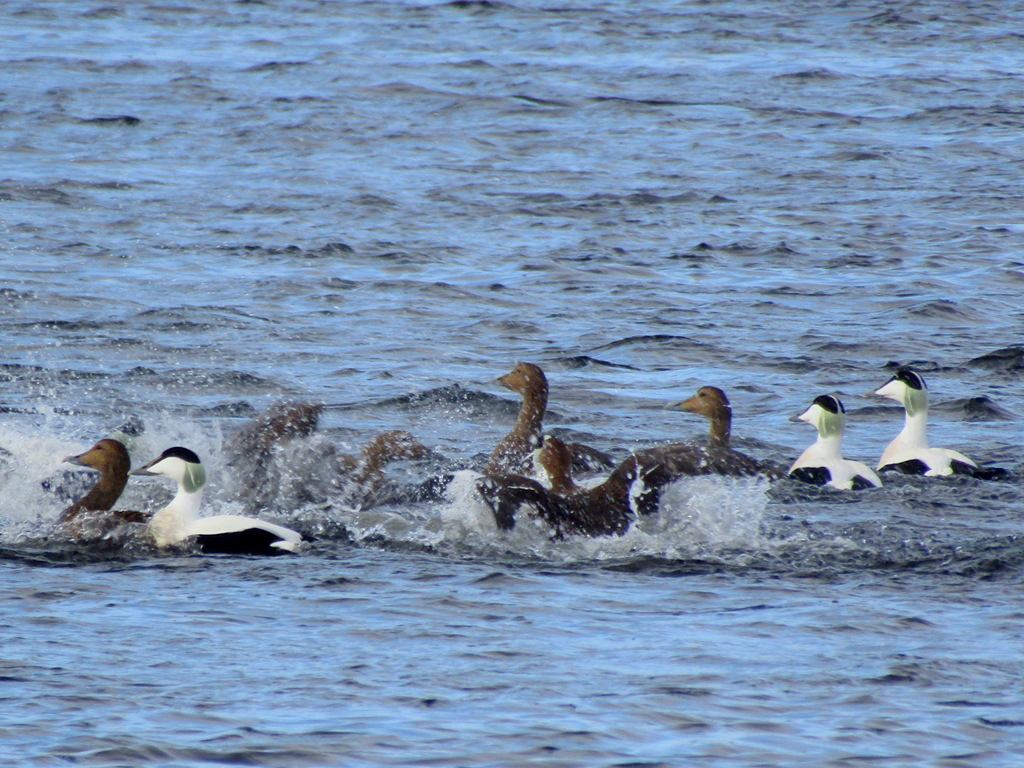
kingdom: Animalia
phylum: Chordata
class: Aves
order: Anseriformes
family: Anatidae
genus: Somateria
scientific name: Somateria mollissima
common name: Common eider
